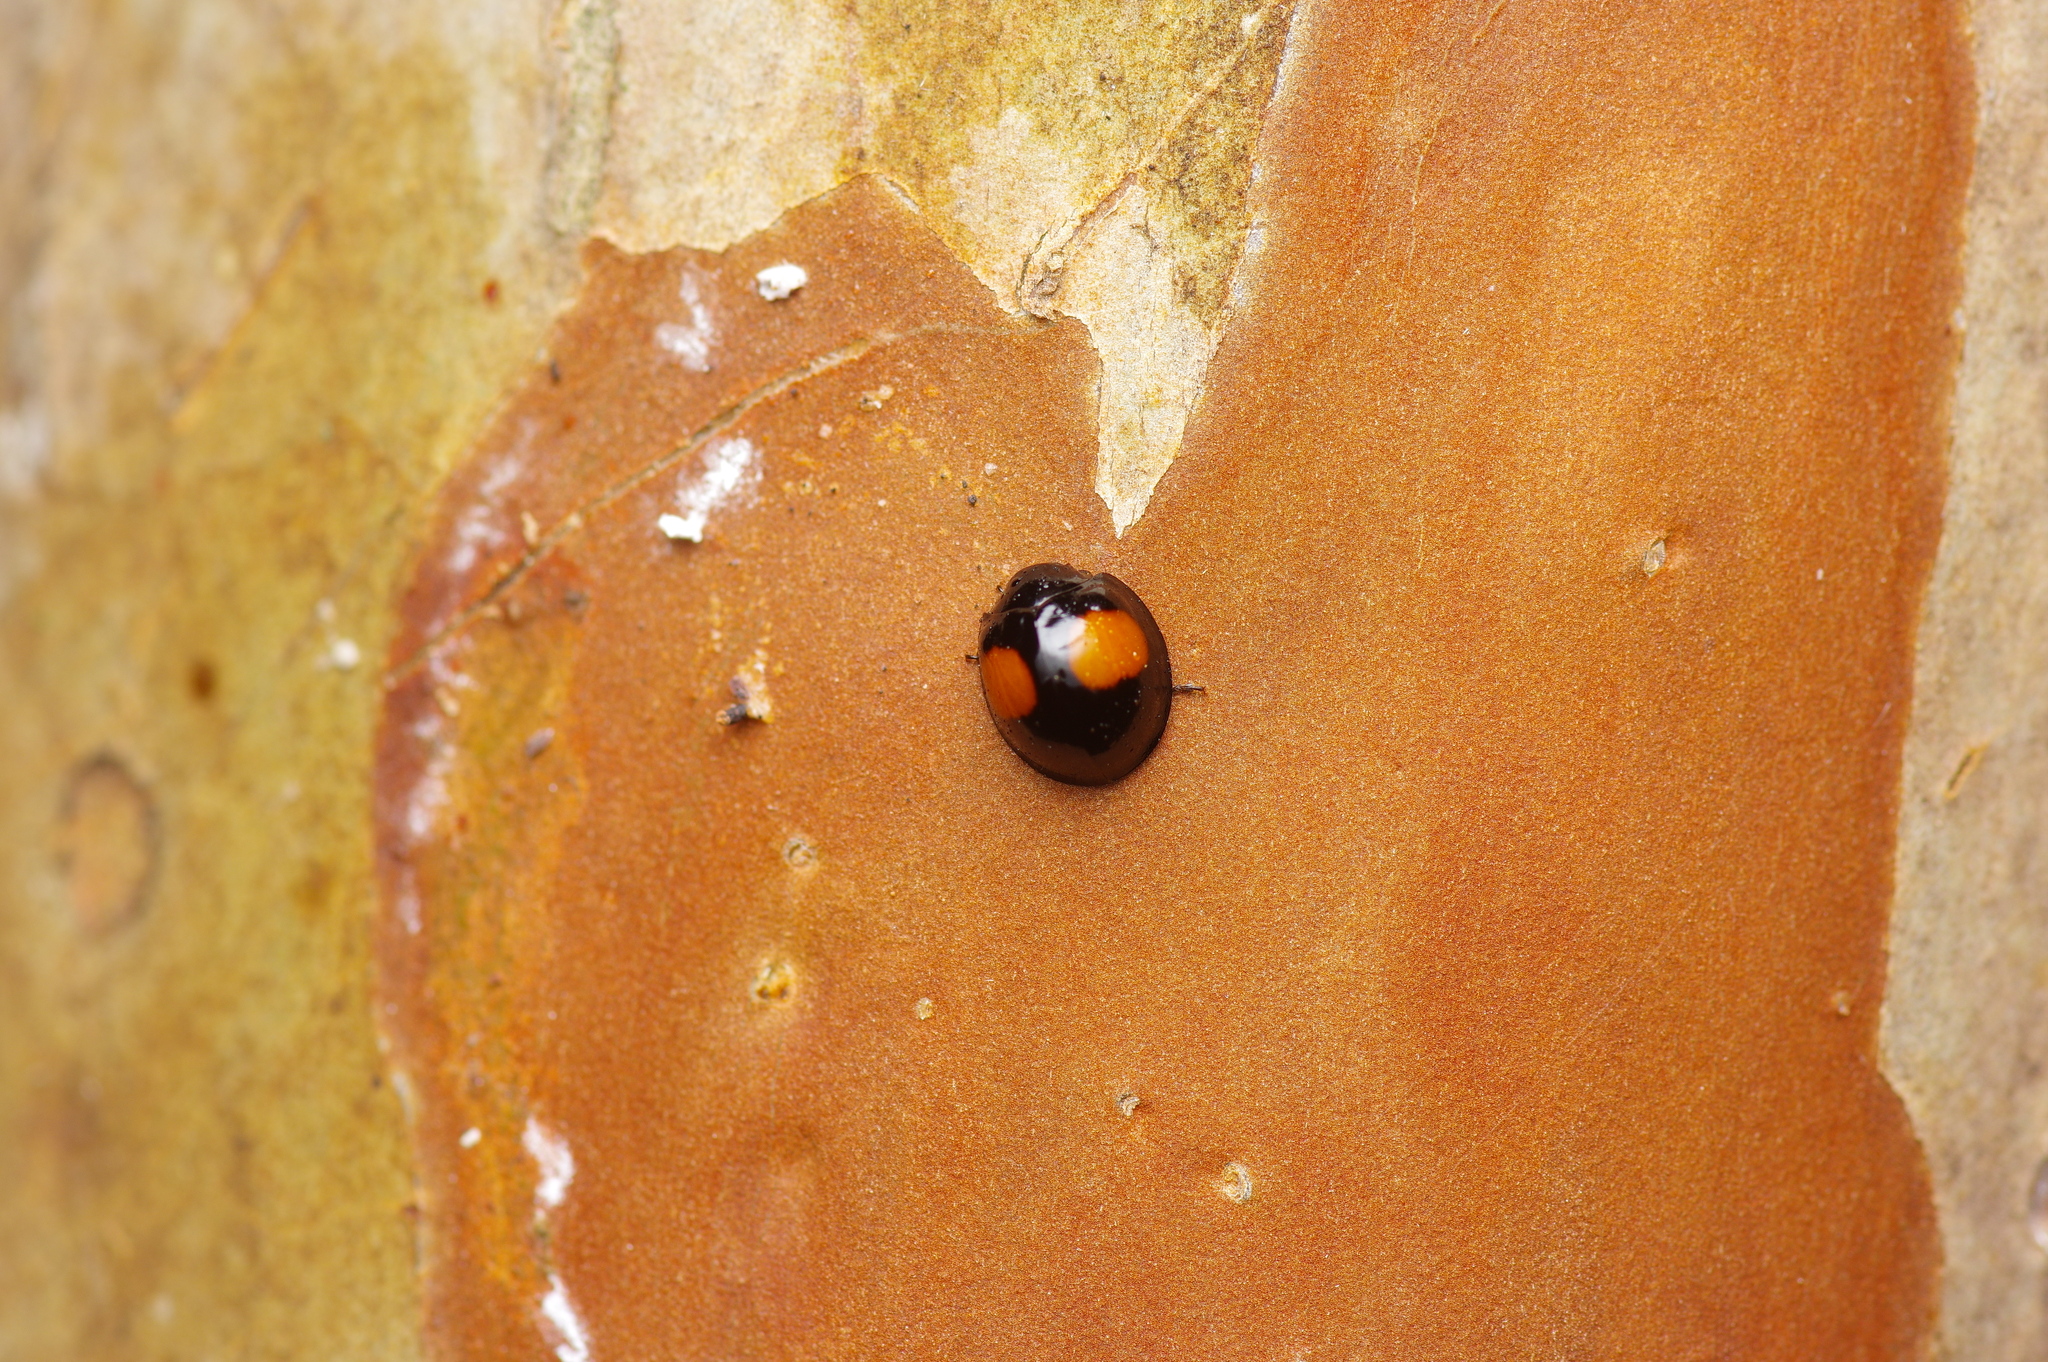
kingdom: Animalia
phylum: Arthropoda
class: Insecta
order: Coleoptera
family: Coccinellidae
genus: Chilocorus
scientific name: Chilocorus cacti
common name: Cactus lady beetle
